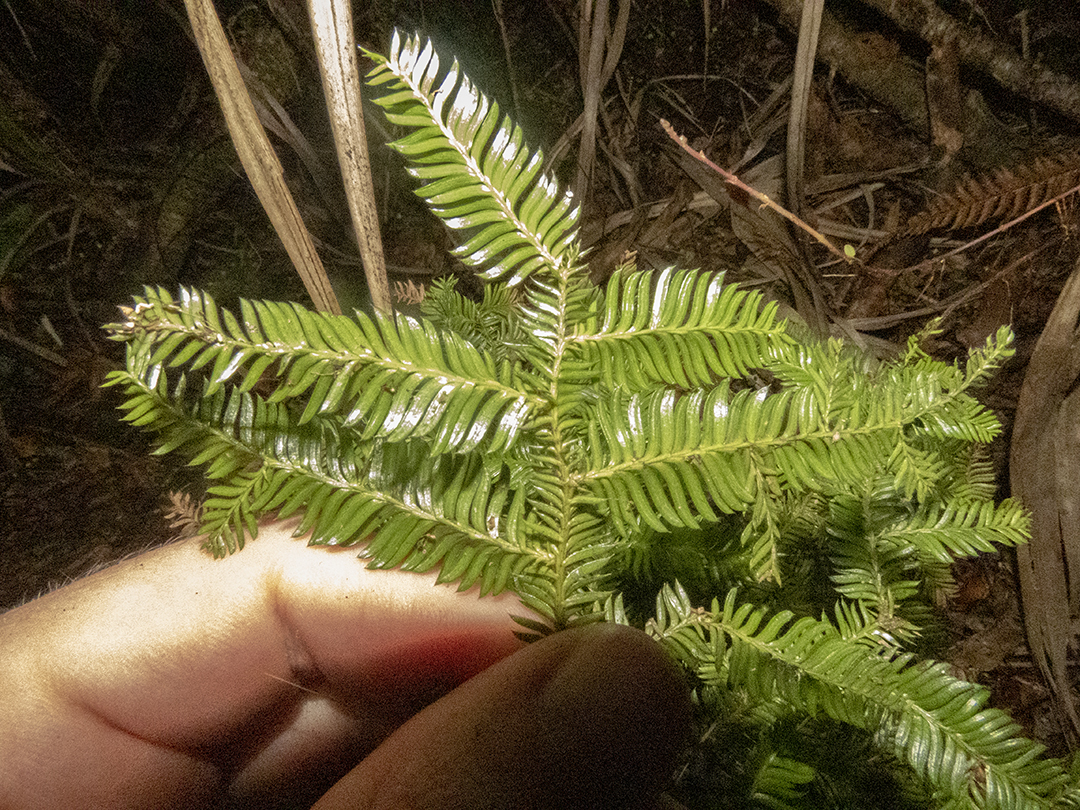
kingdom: Plantae
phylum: Tracheophyta
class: Pinopsida
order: Pinales
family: Podocarpaceae
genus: Dacrycarpus
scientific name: Dacrycarpus dacrydioides
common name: White pine
